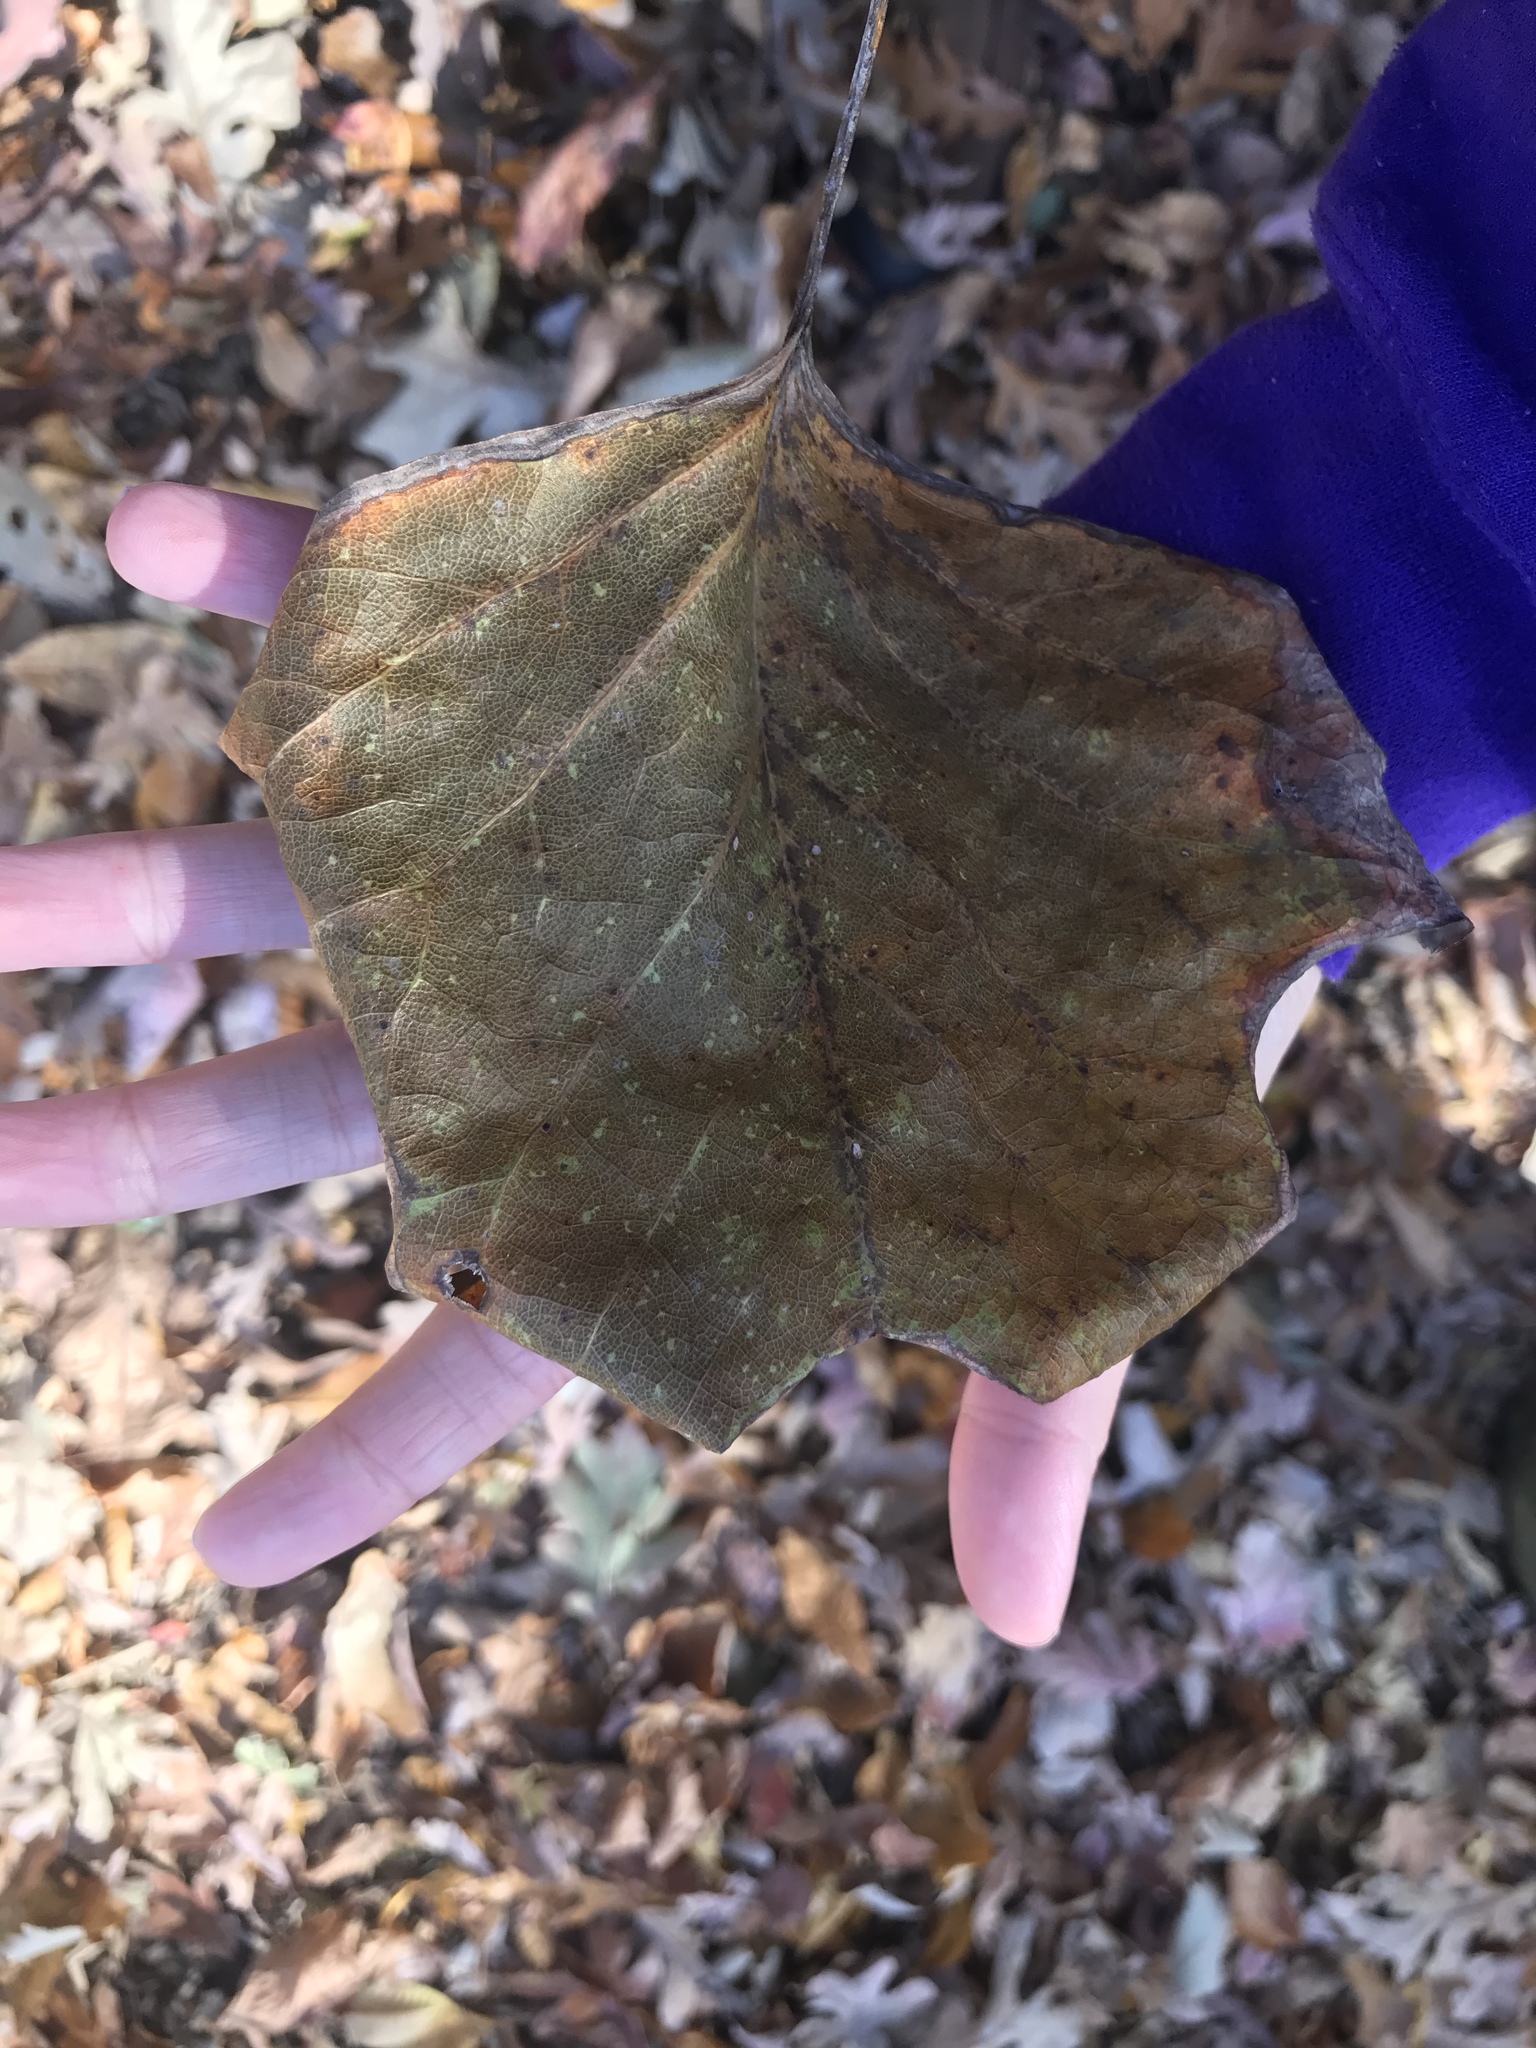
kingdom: Plantae
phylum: Tracheophyta
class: Magnoliopsida
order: Magnoliales
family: Magnoliaceae
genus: Liriodendron
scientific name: Liriodendron tulipifera
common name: Tulip tree
